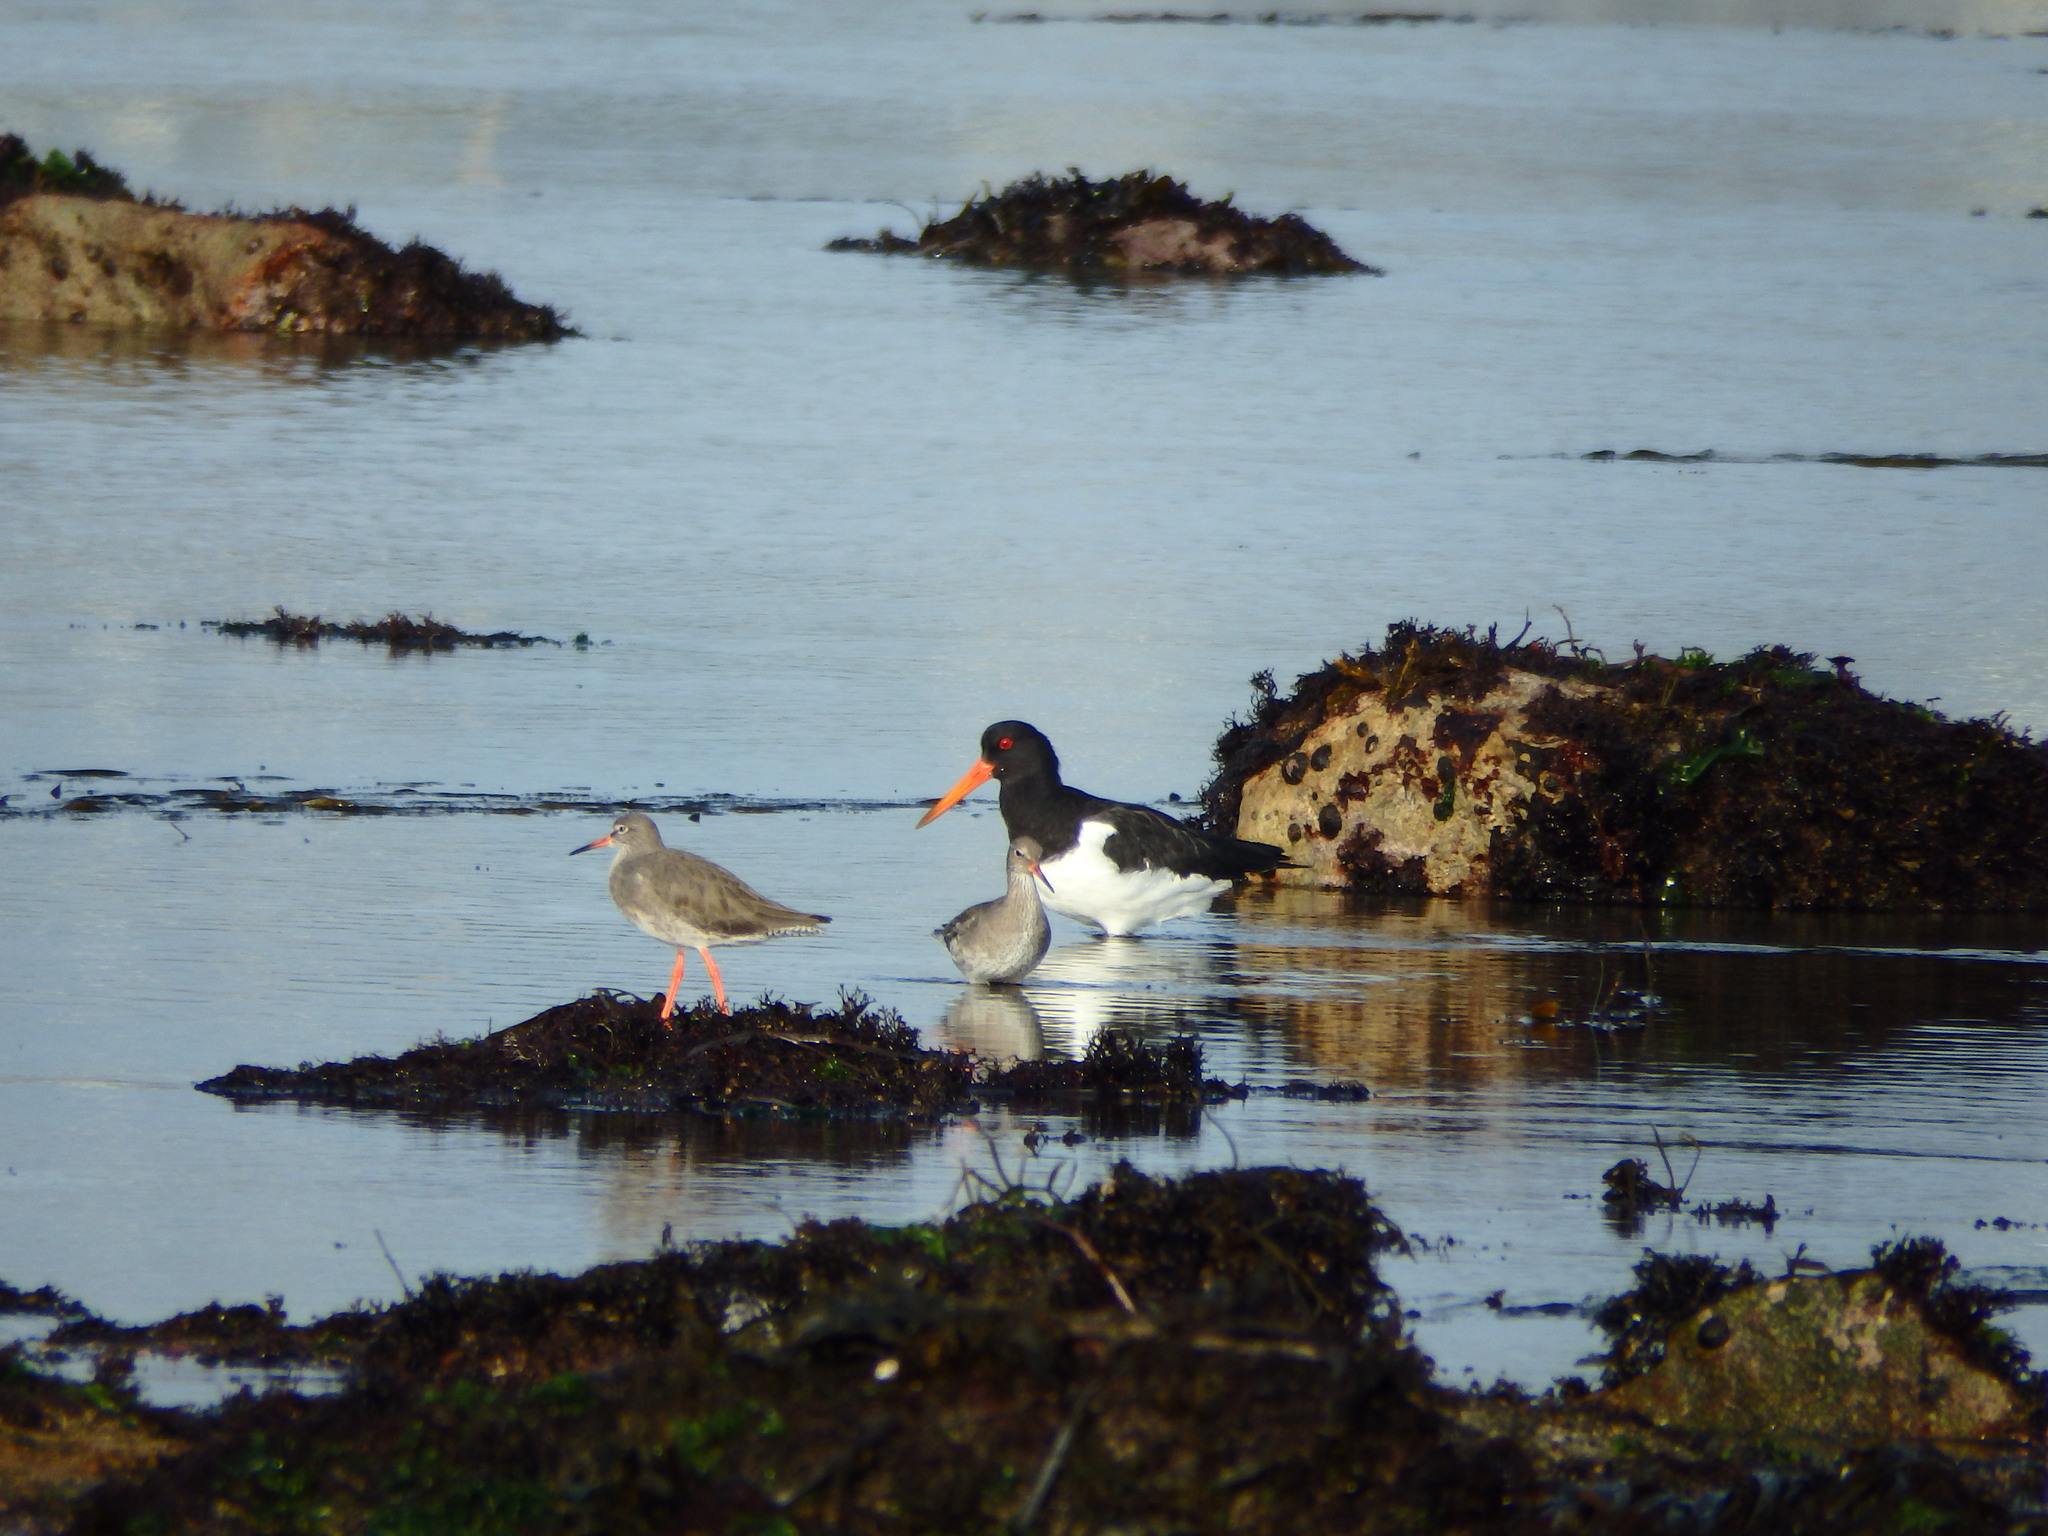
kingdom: Animalia
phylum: Chordata
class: Aves
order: Charadriiformes
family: Haematopodidae
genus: Haematopus
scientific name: Haematopus ostralegus
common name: Eurasian oystercatcher
